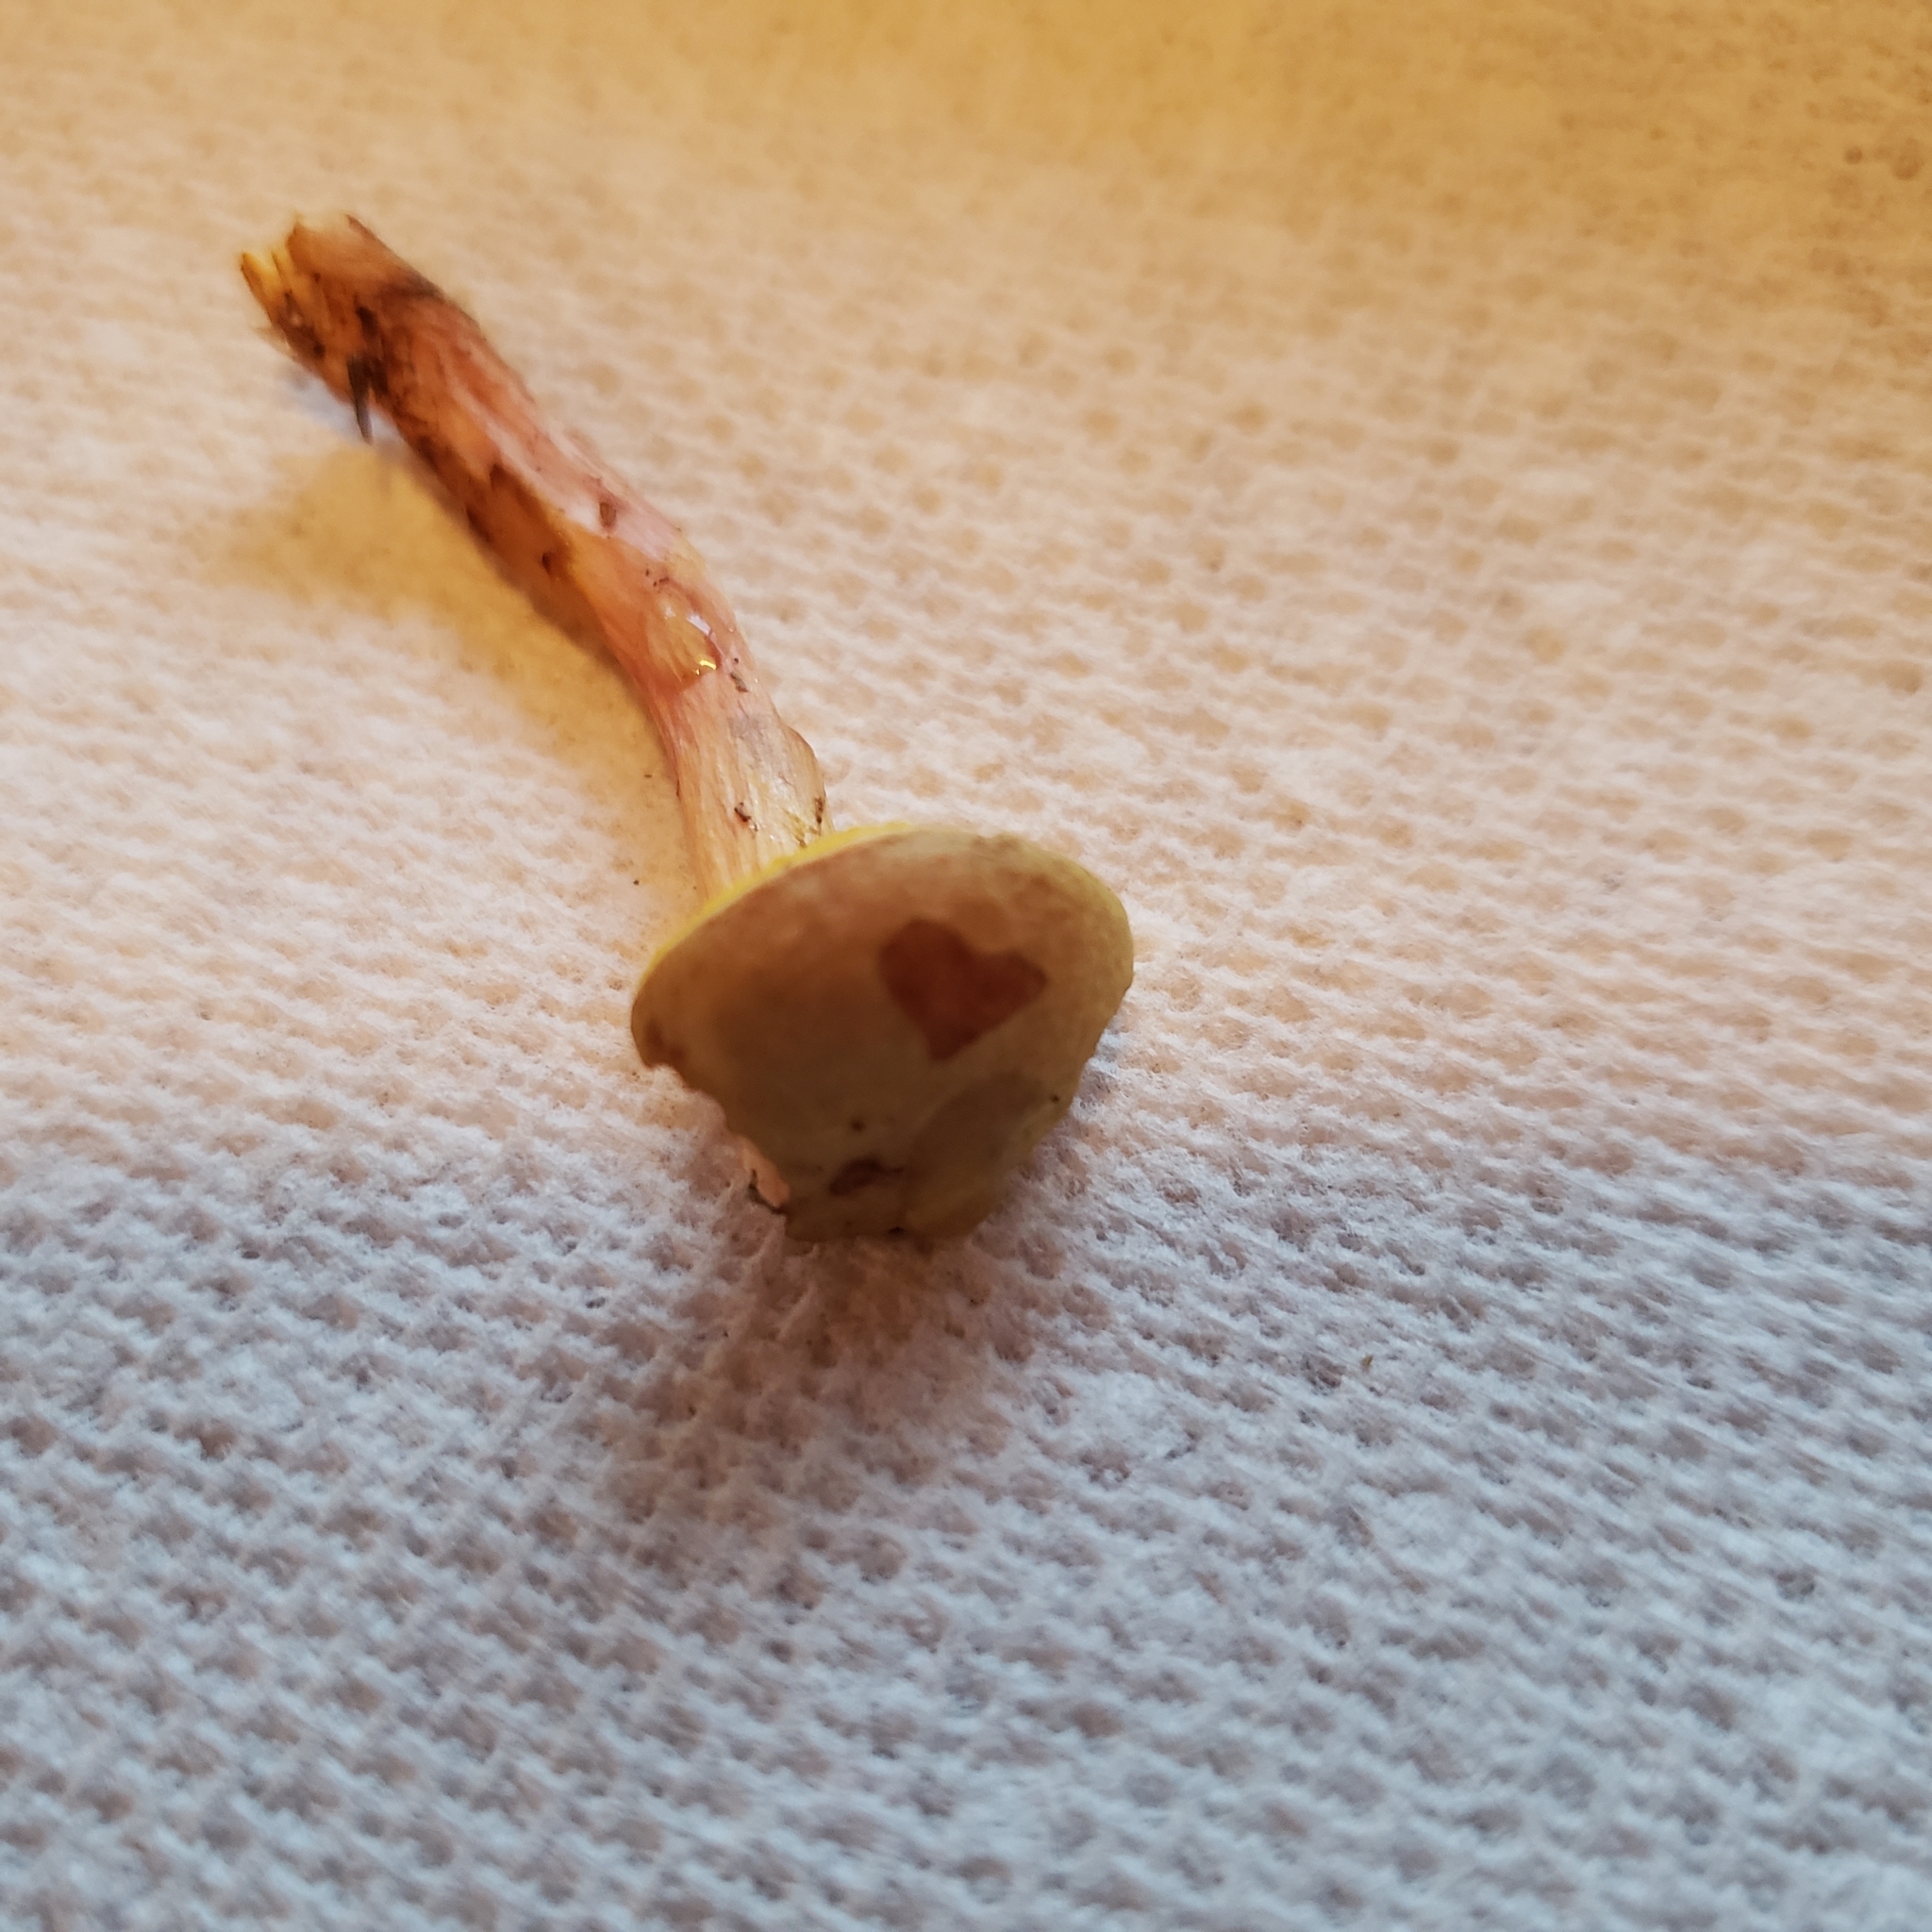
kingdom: Fungi
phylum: Basidiomycota
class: Agaricomycetes
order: Boletales
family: Boletaceae
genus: Aureoboletus
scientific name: Aureoboletus auriporus
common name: Sour gold-pored bolete
